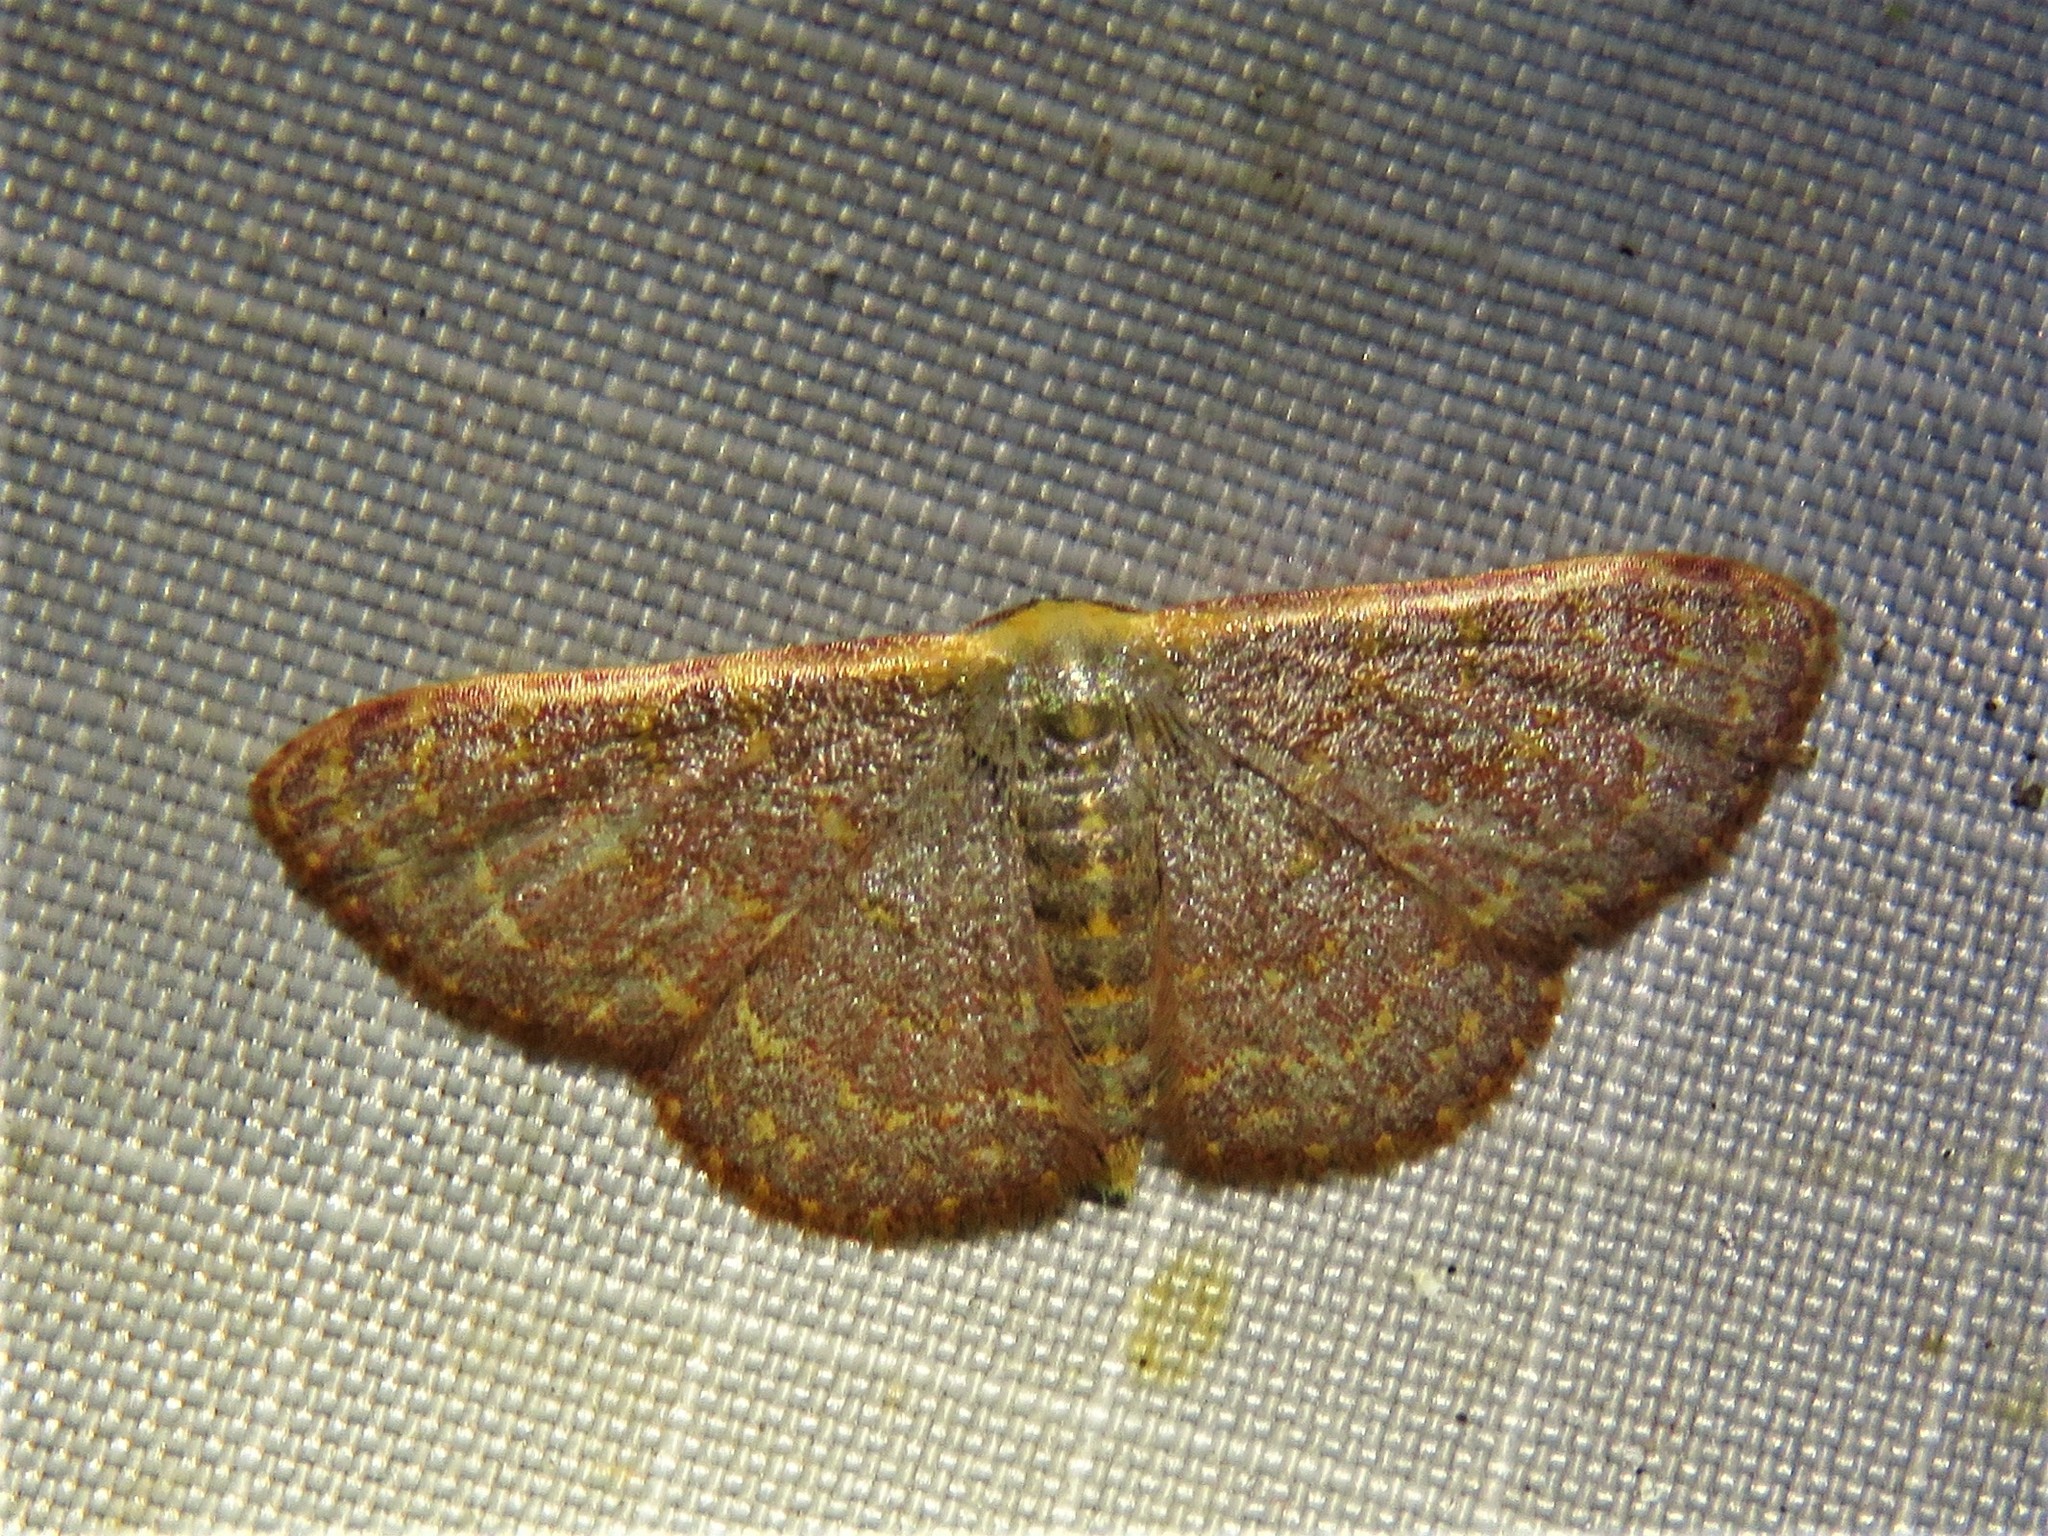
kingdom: Animalia
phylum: Arthropoda
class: Insecta
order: Lepidoptera
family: Geometridae
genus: Leptostales
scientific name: Leptostales pannaria
